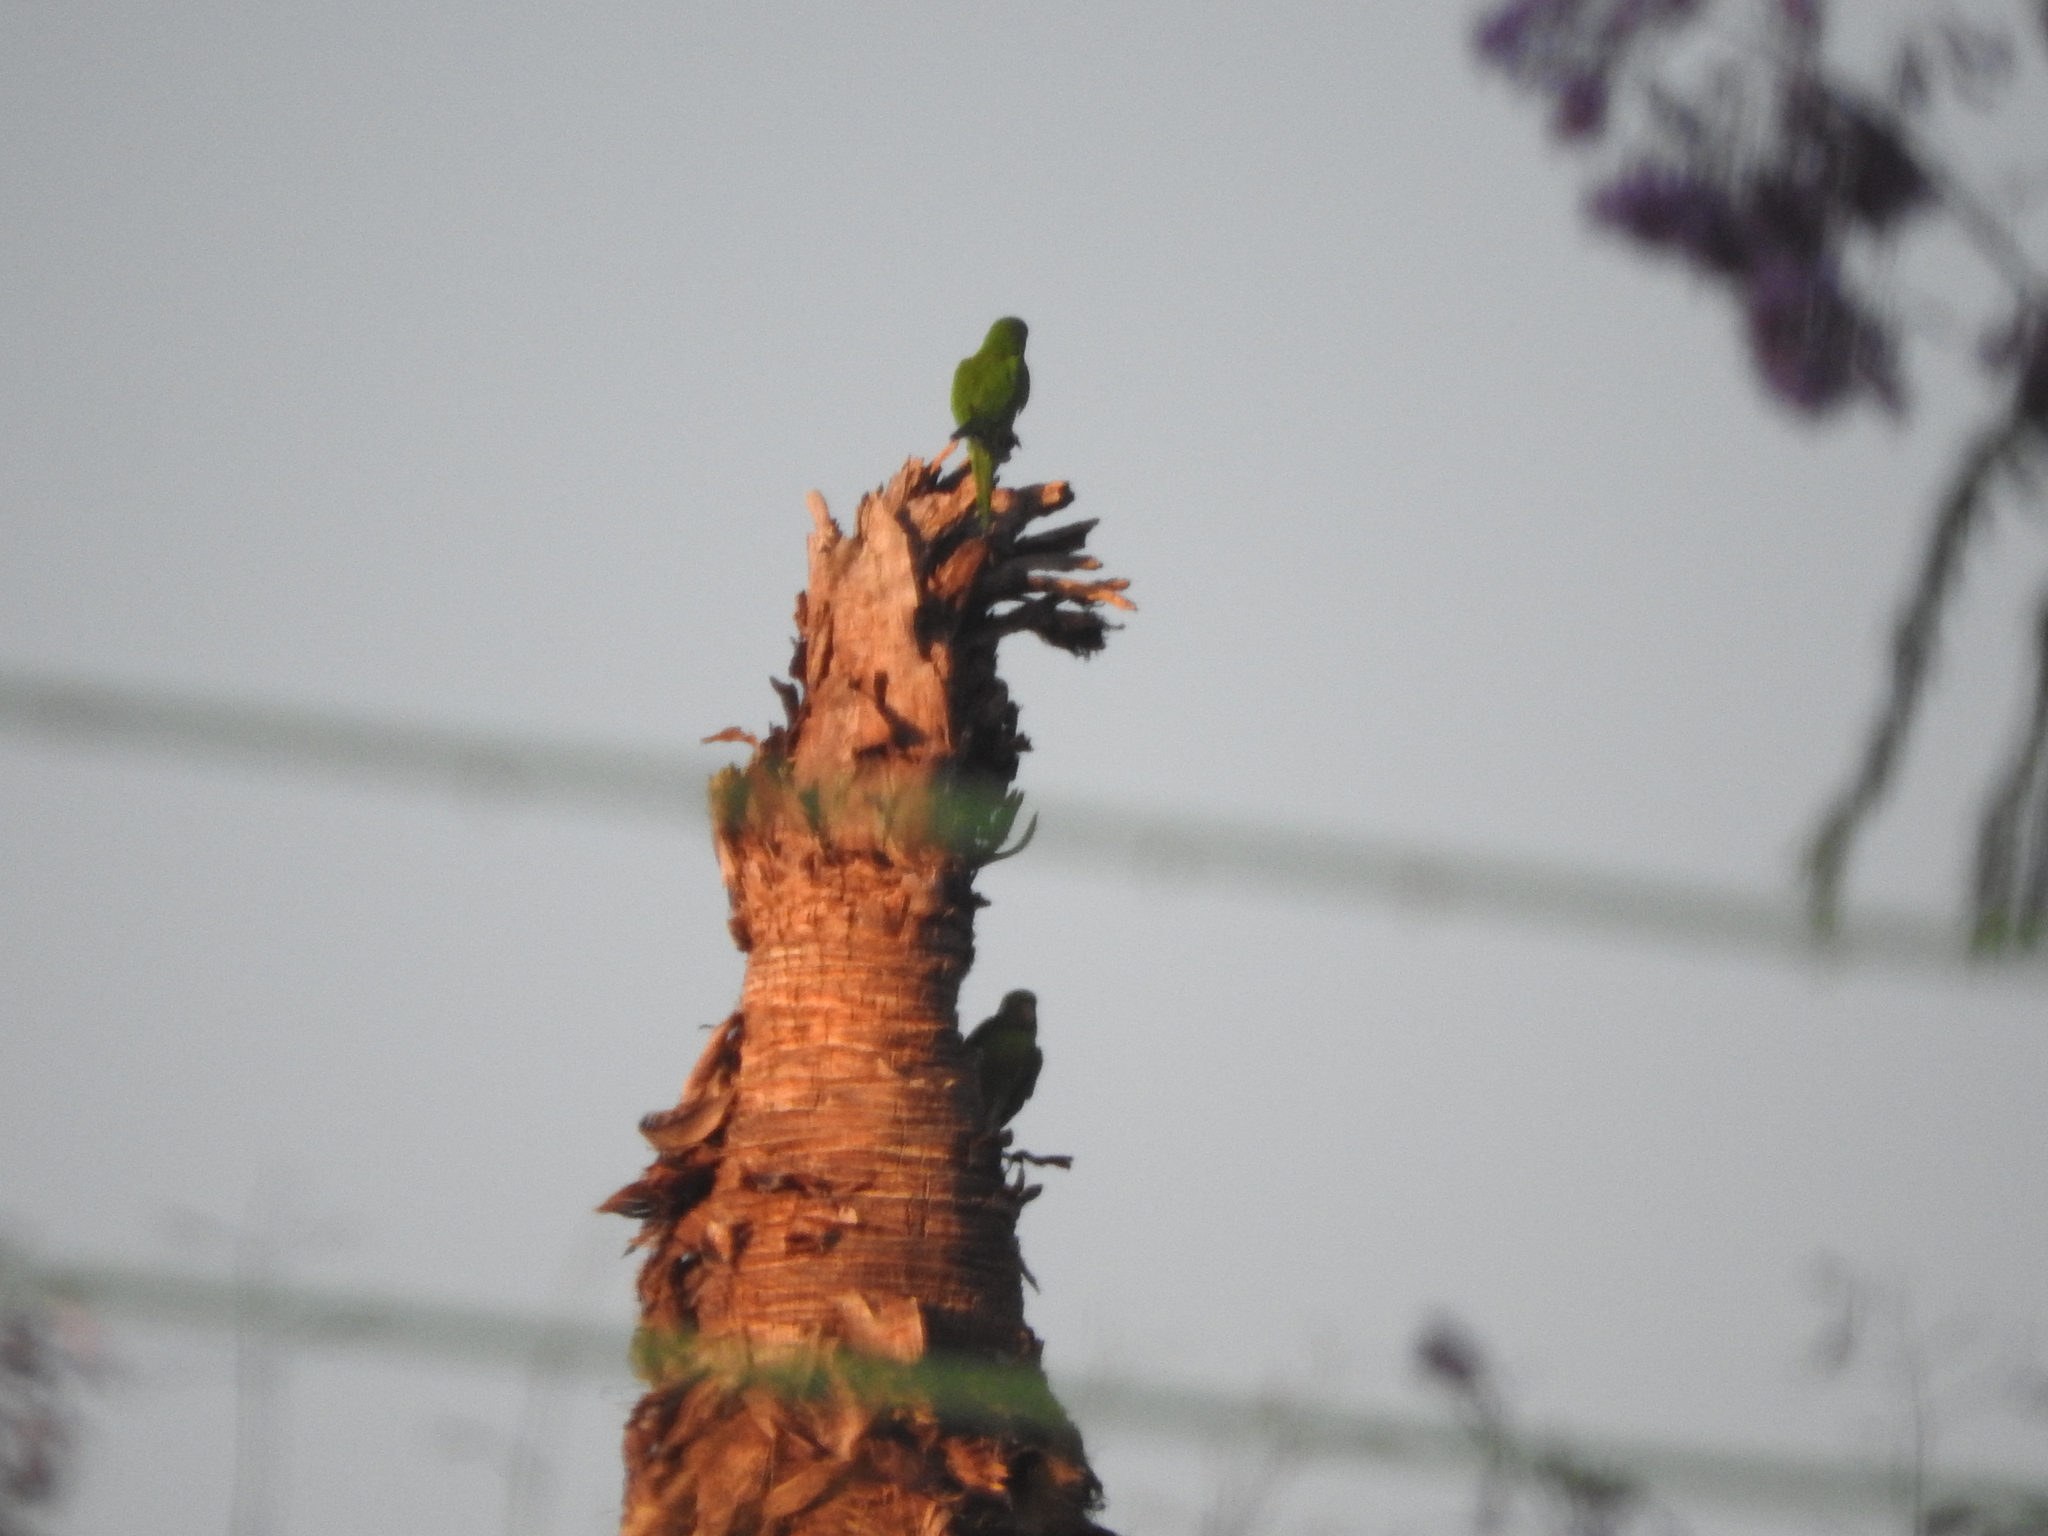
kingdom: Animalia
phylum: Chordata
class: Aves
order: Psittaciformes
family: Psittacidae
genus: Aratinga
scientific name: Aratinga holochlora
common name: Green parakeet
